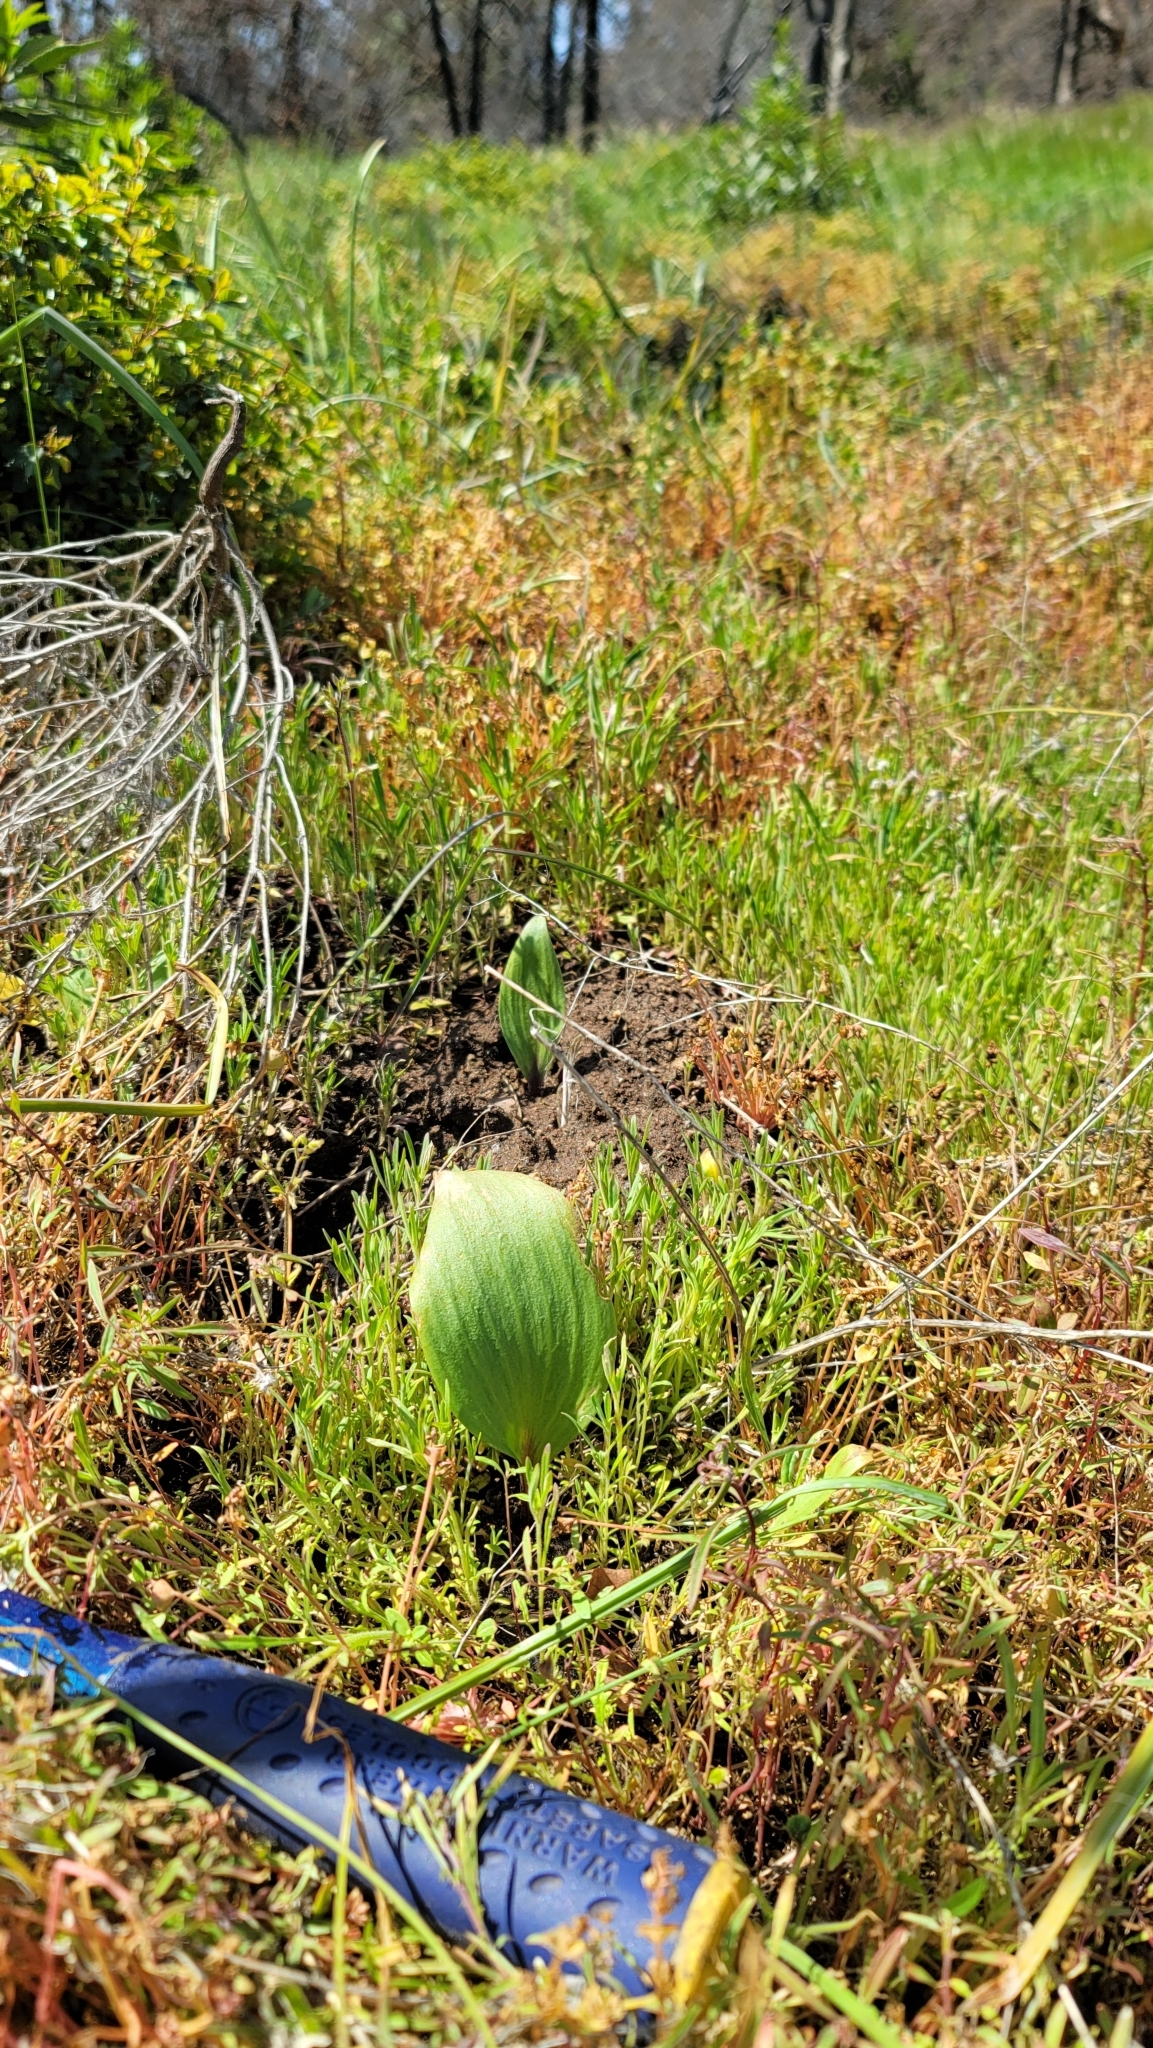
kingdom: Plantae
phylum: Tracheophyta
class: Liliopsida
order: Liliales
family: Liliaceae
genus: Fritillaria
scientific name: Fritillaria micrantha
